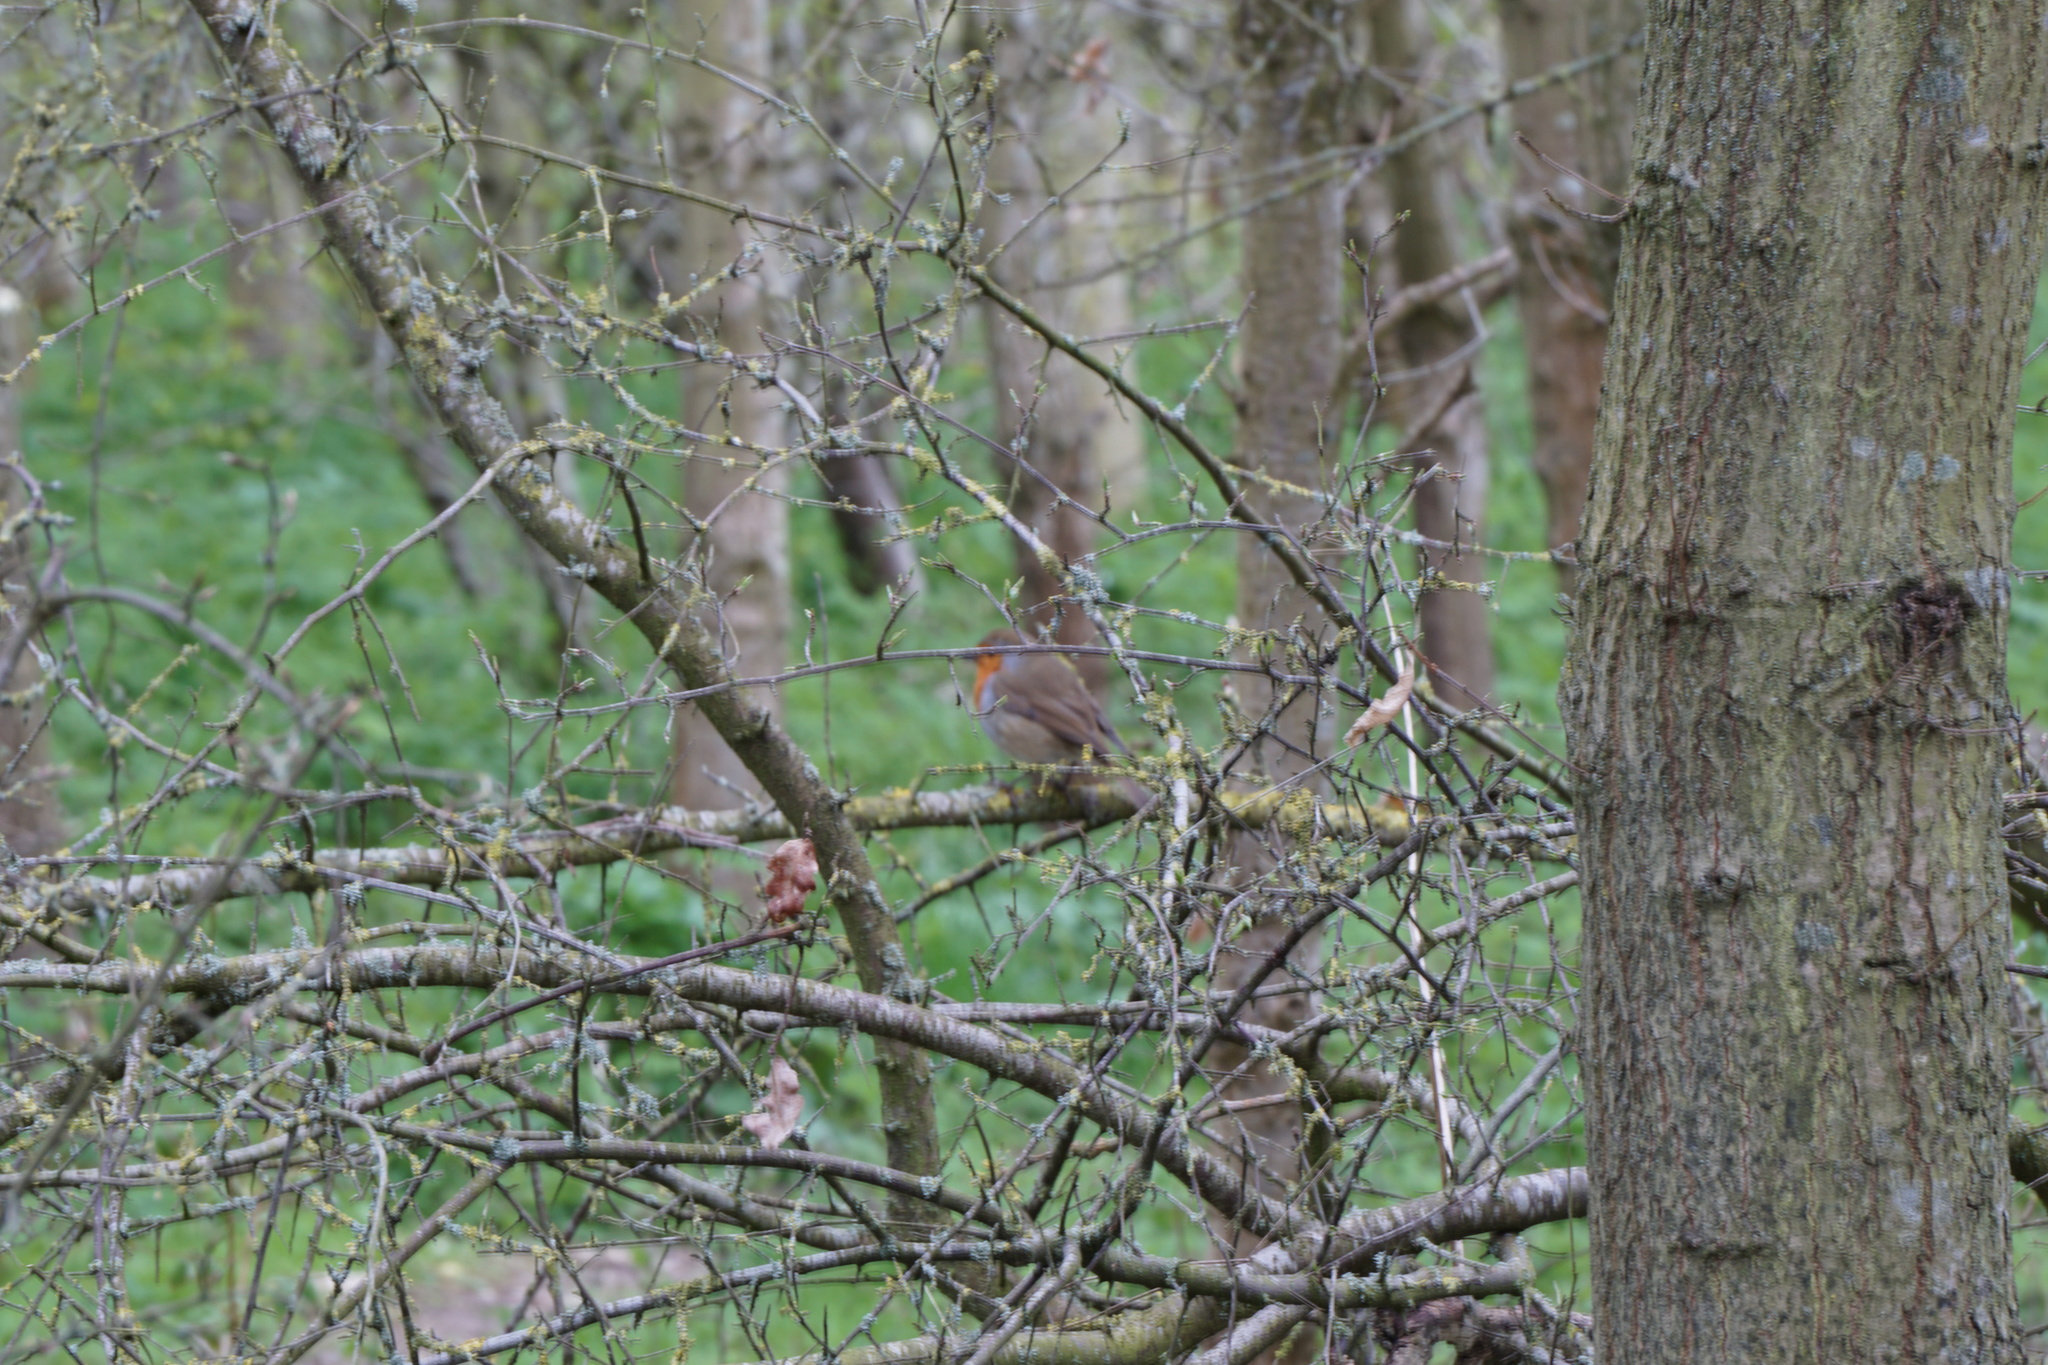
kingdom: Animalia
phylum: Chordata
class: Aves
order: Passeriformes
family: Muscicapidae
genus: Erithacus
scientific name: Erithacus rubecula
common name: European robin
